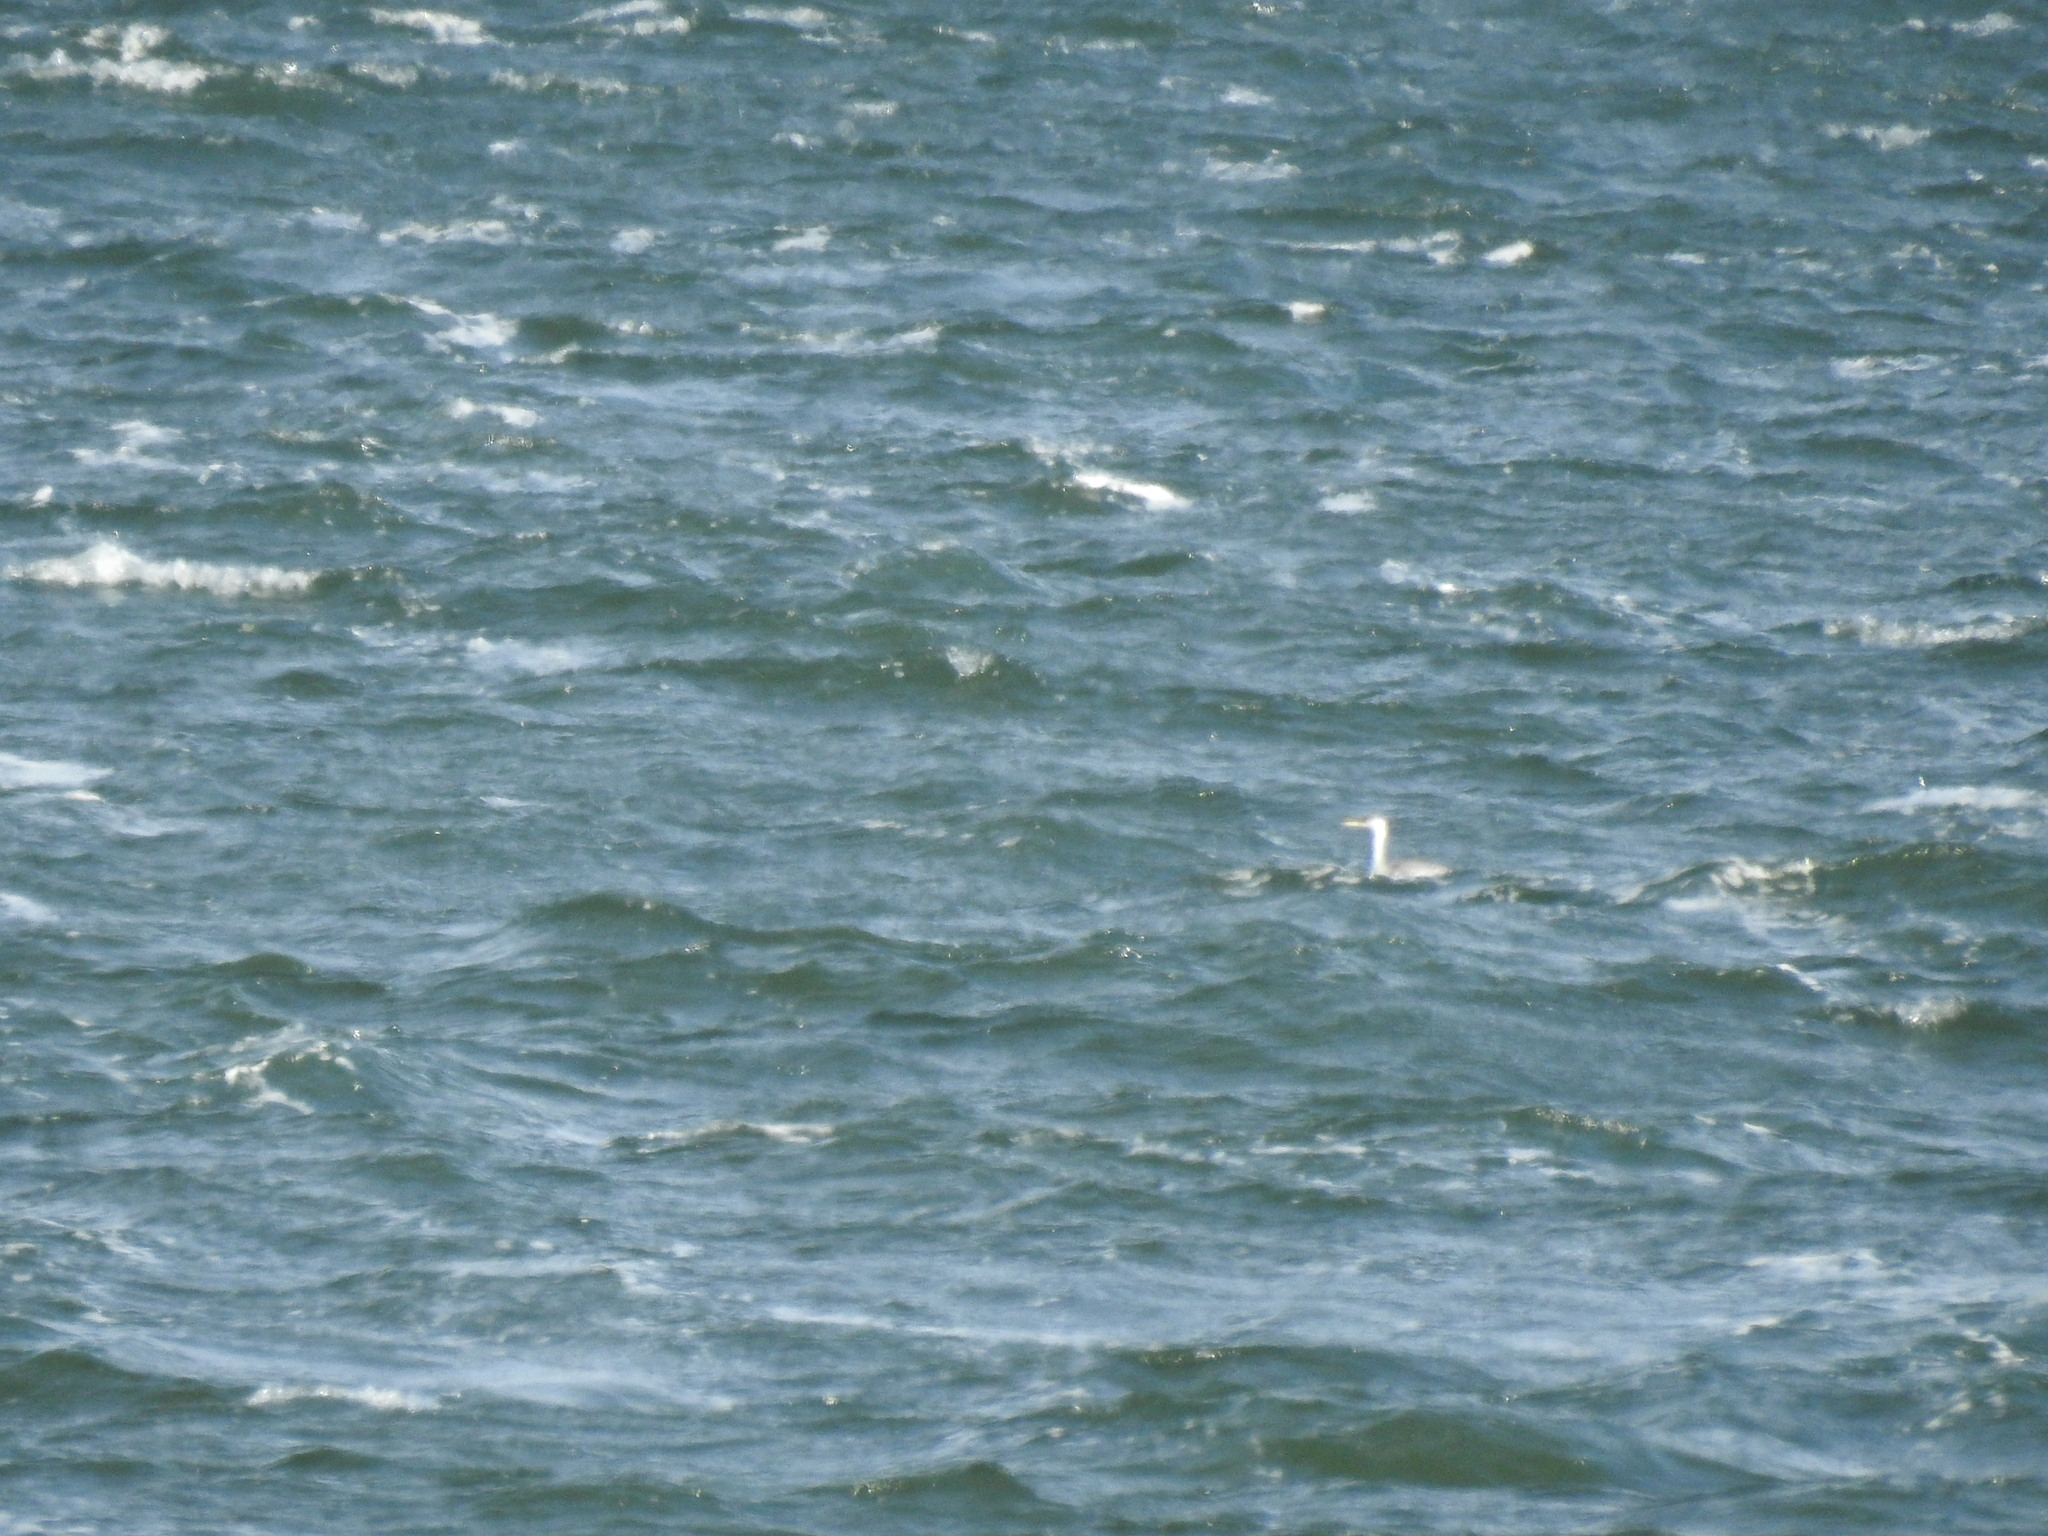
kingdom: Animalia
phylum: Chordata
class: Aves
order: Podicipediformes
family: Podicipedidae
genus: Aechmophorus
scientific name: Aechmophorus occidentalis
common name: Western grebe
